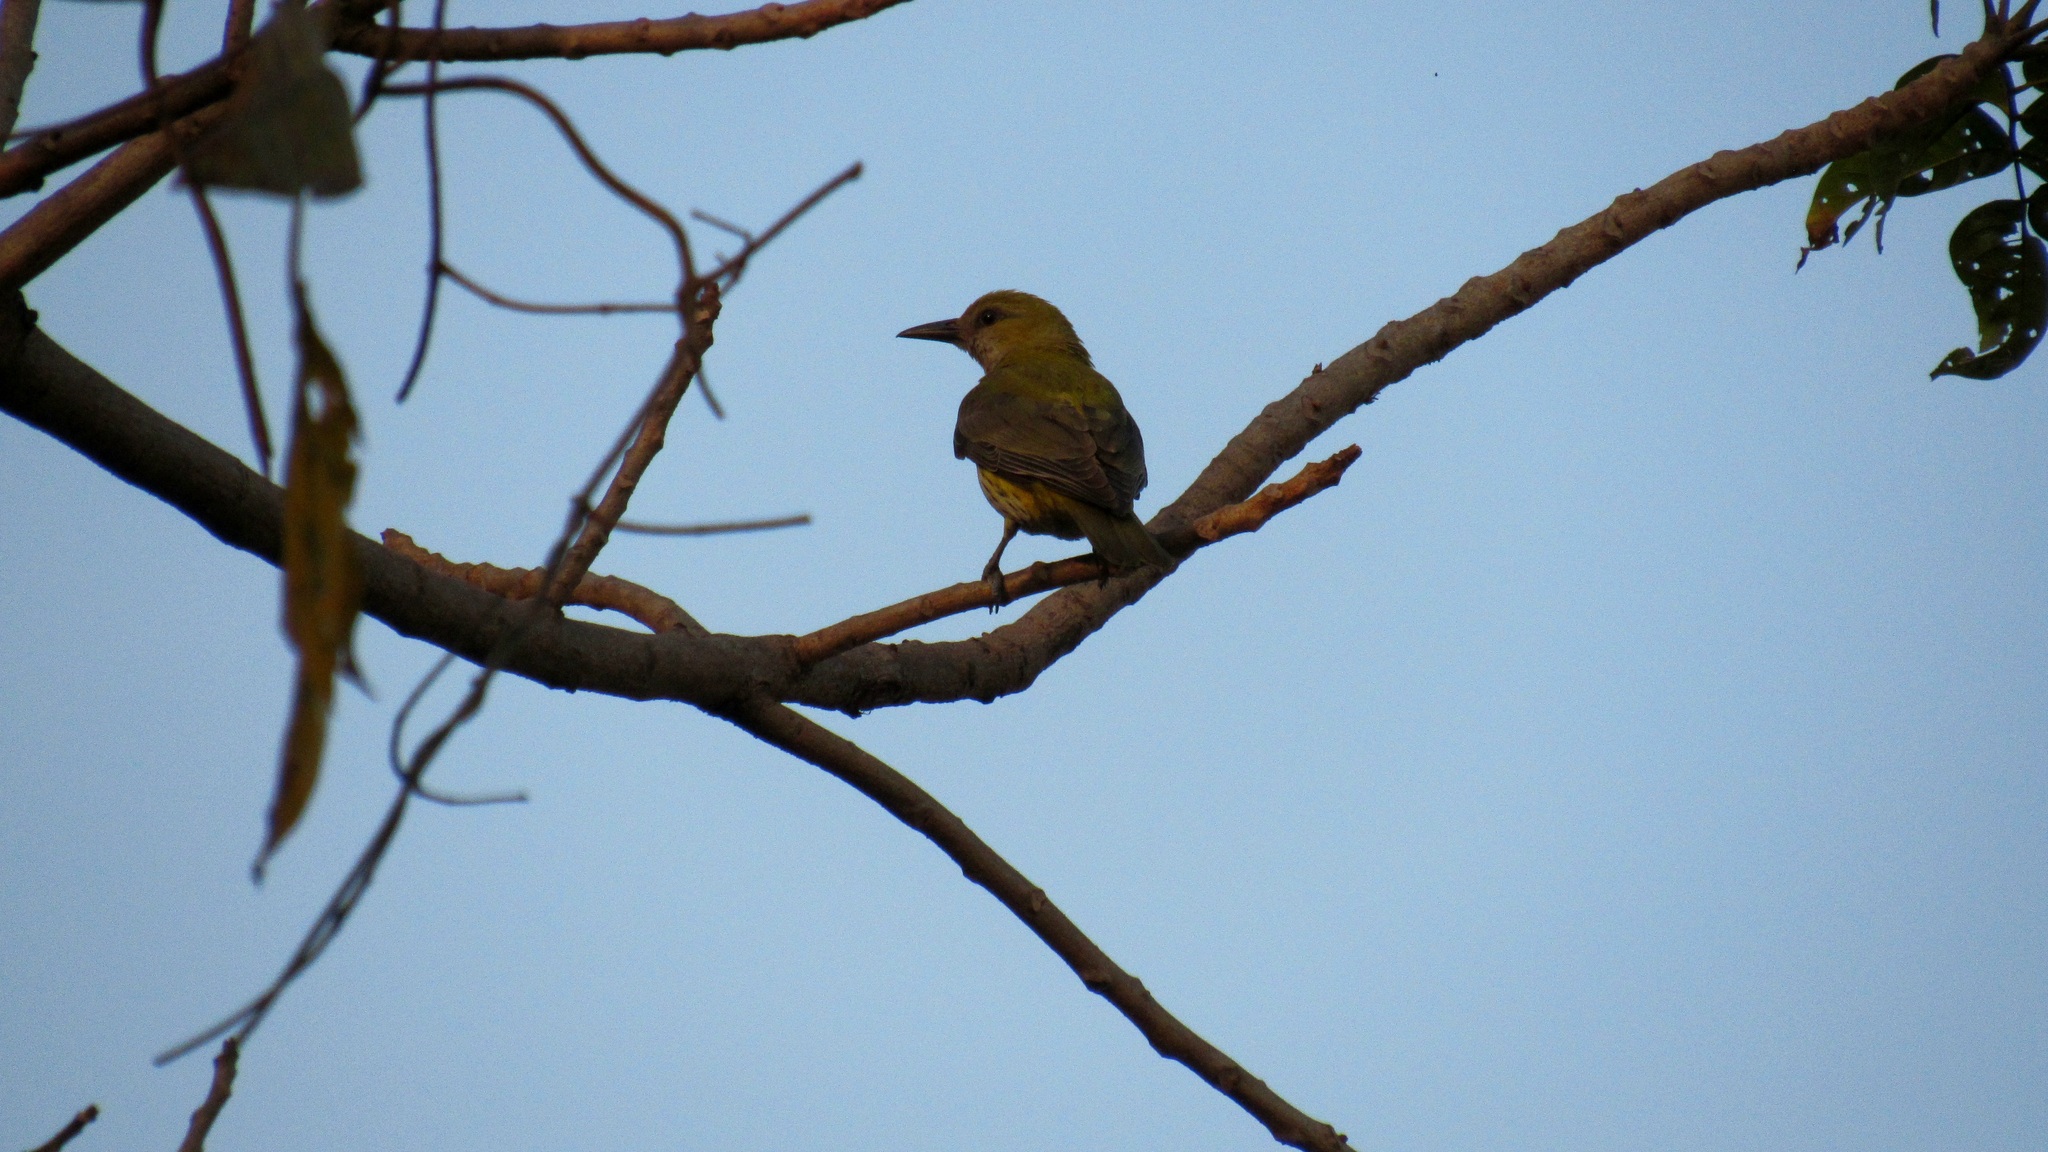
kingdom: Animalia
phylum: Chordata
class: Aves
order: Passeriformes
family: Oriolidae
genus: Oriolus
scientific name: Oriolus kundoo
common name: Indian golden oriole
